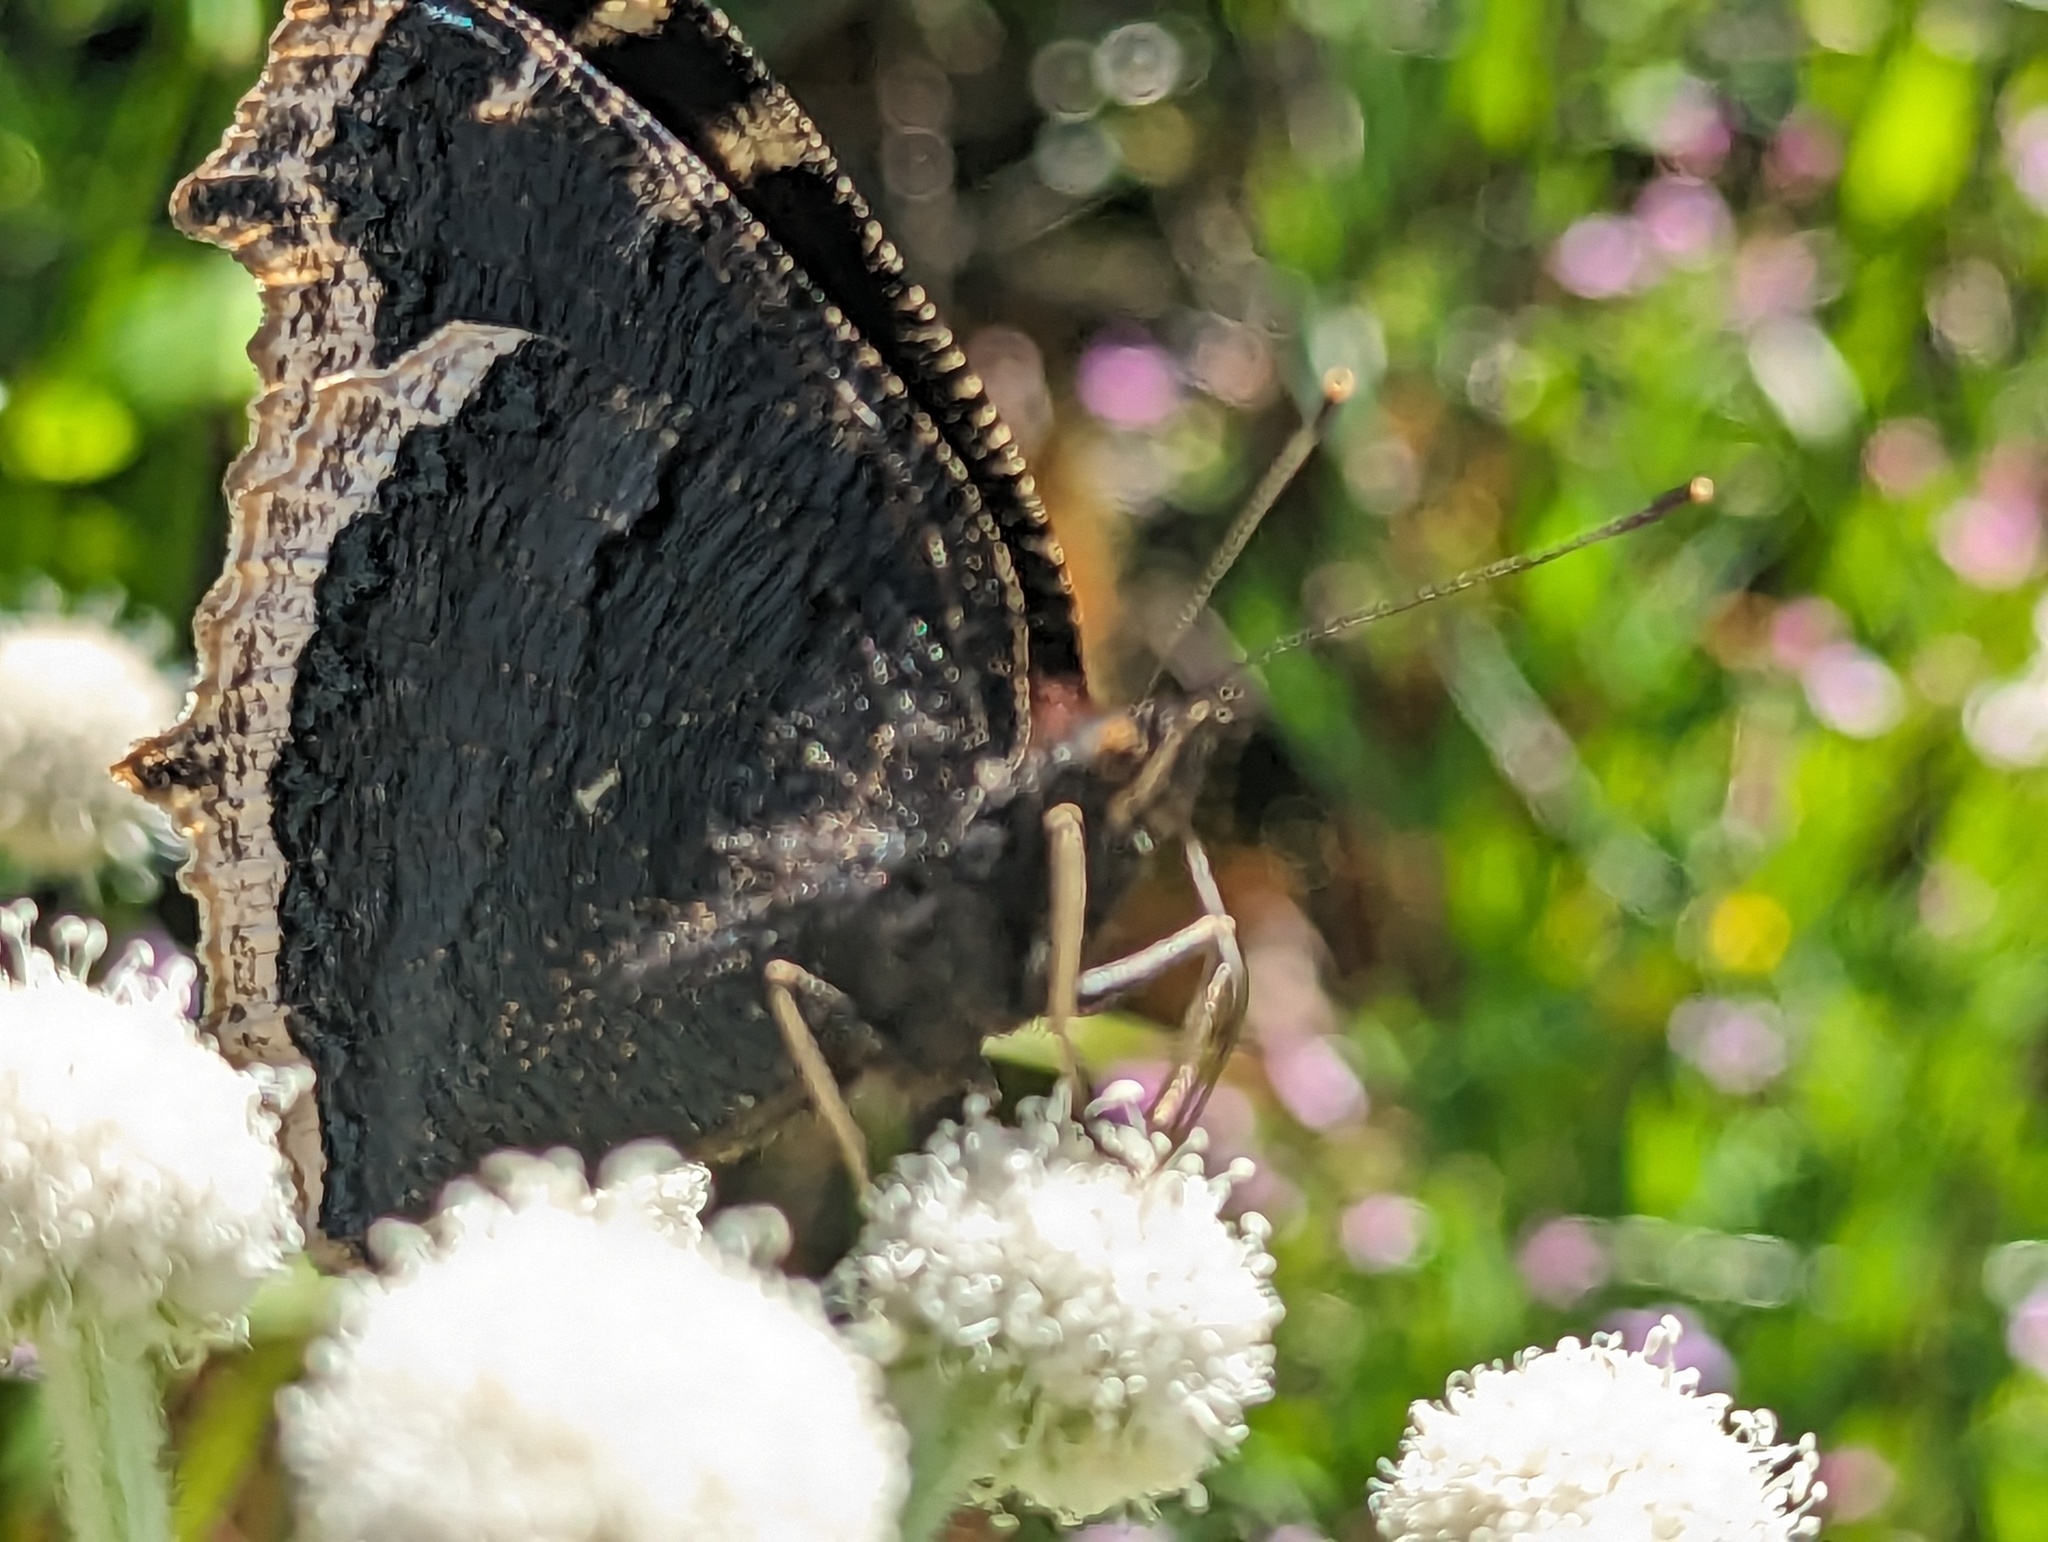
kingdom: Animalia
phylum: Arthropoda
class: Insecta
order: Lepidoptera
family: Nymphalidae
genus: Nymphalis
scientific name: Nymphalis antiopa
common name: Camberwell beauty
